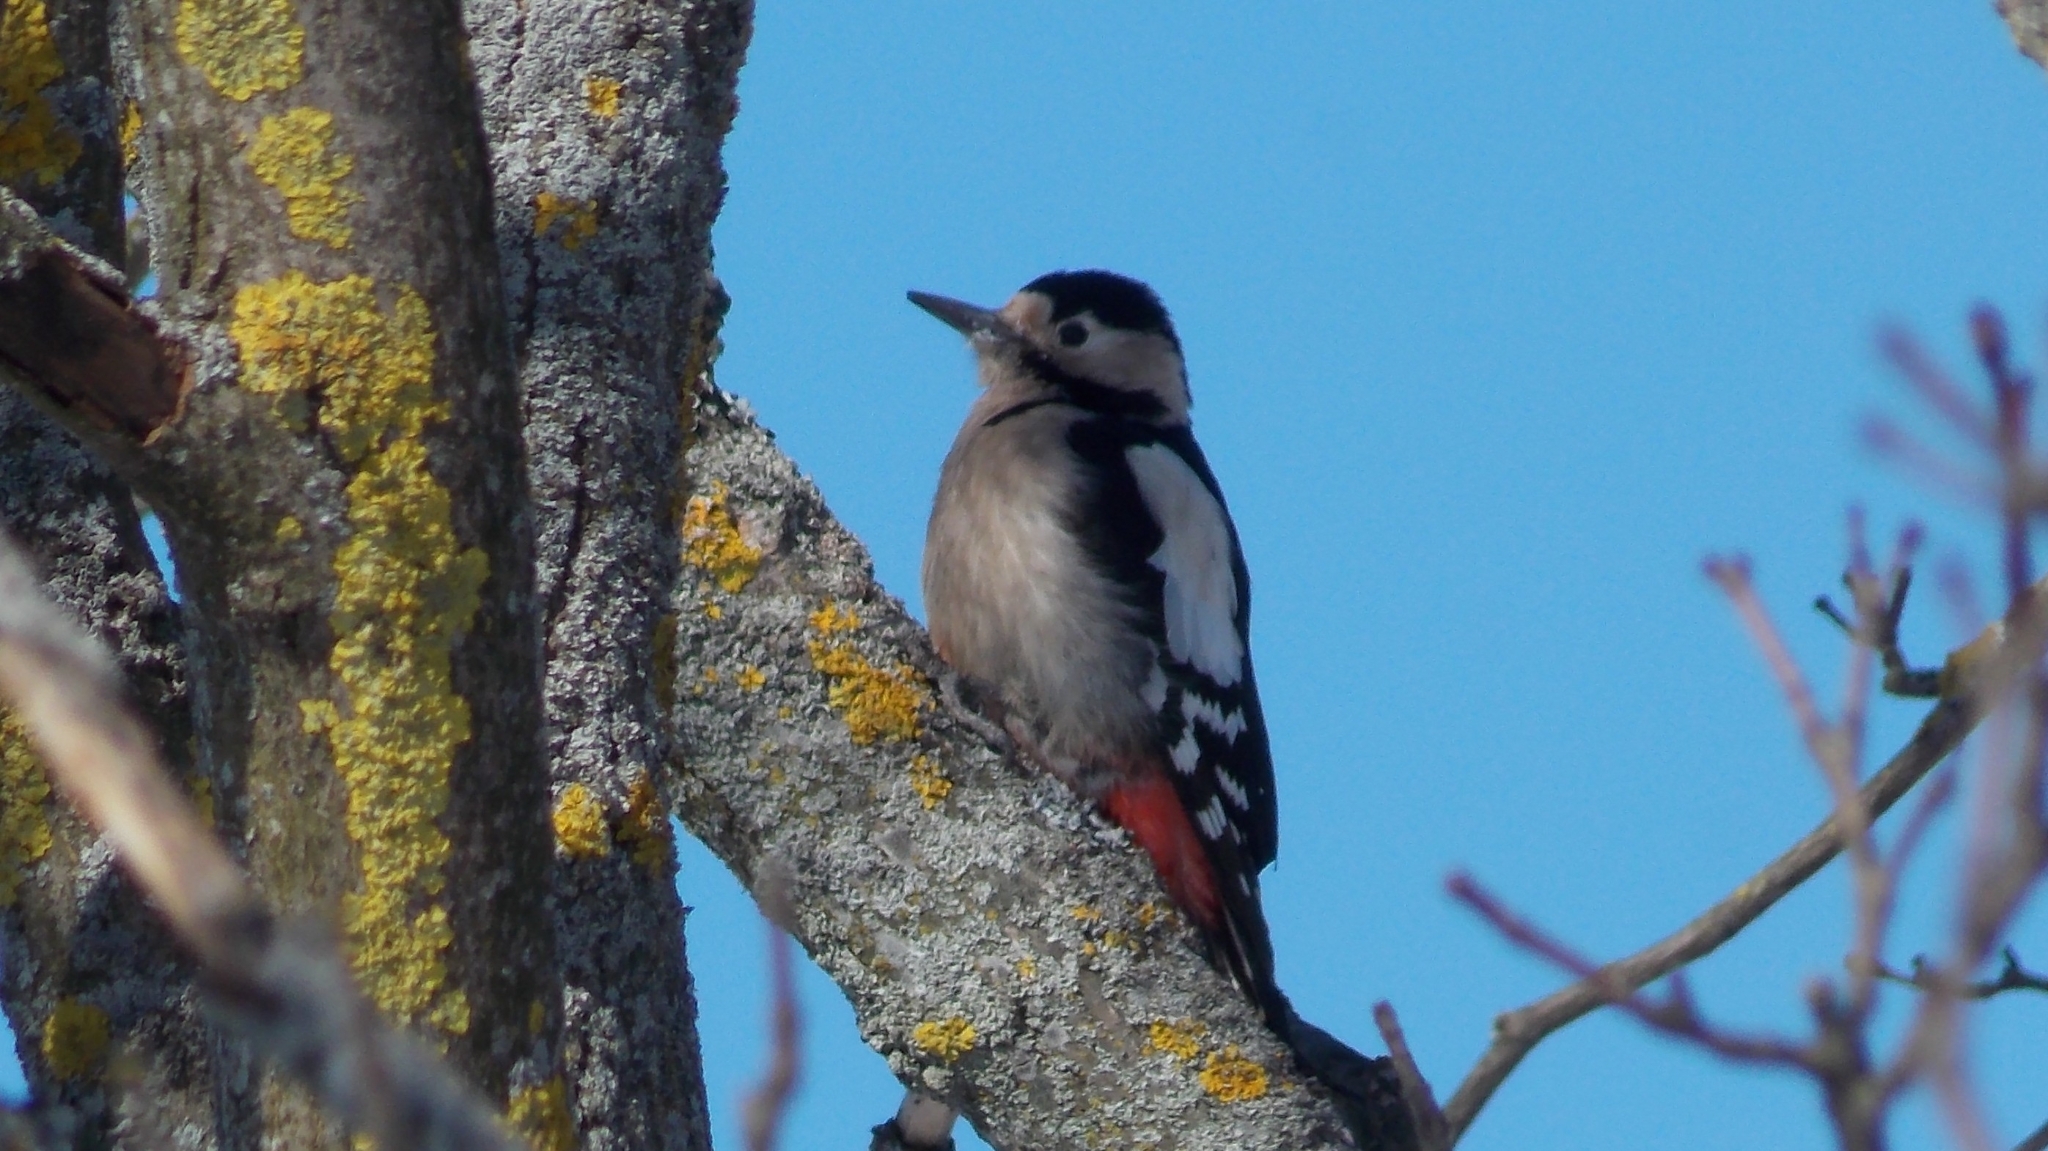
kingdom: Animalia
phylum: Chordata
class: Aves
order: Piciformes
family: Picidae
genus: Dendrocopos
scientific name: Dendrocopos syriacus
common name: Syrian woodpecker
